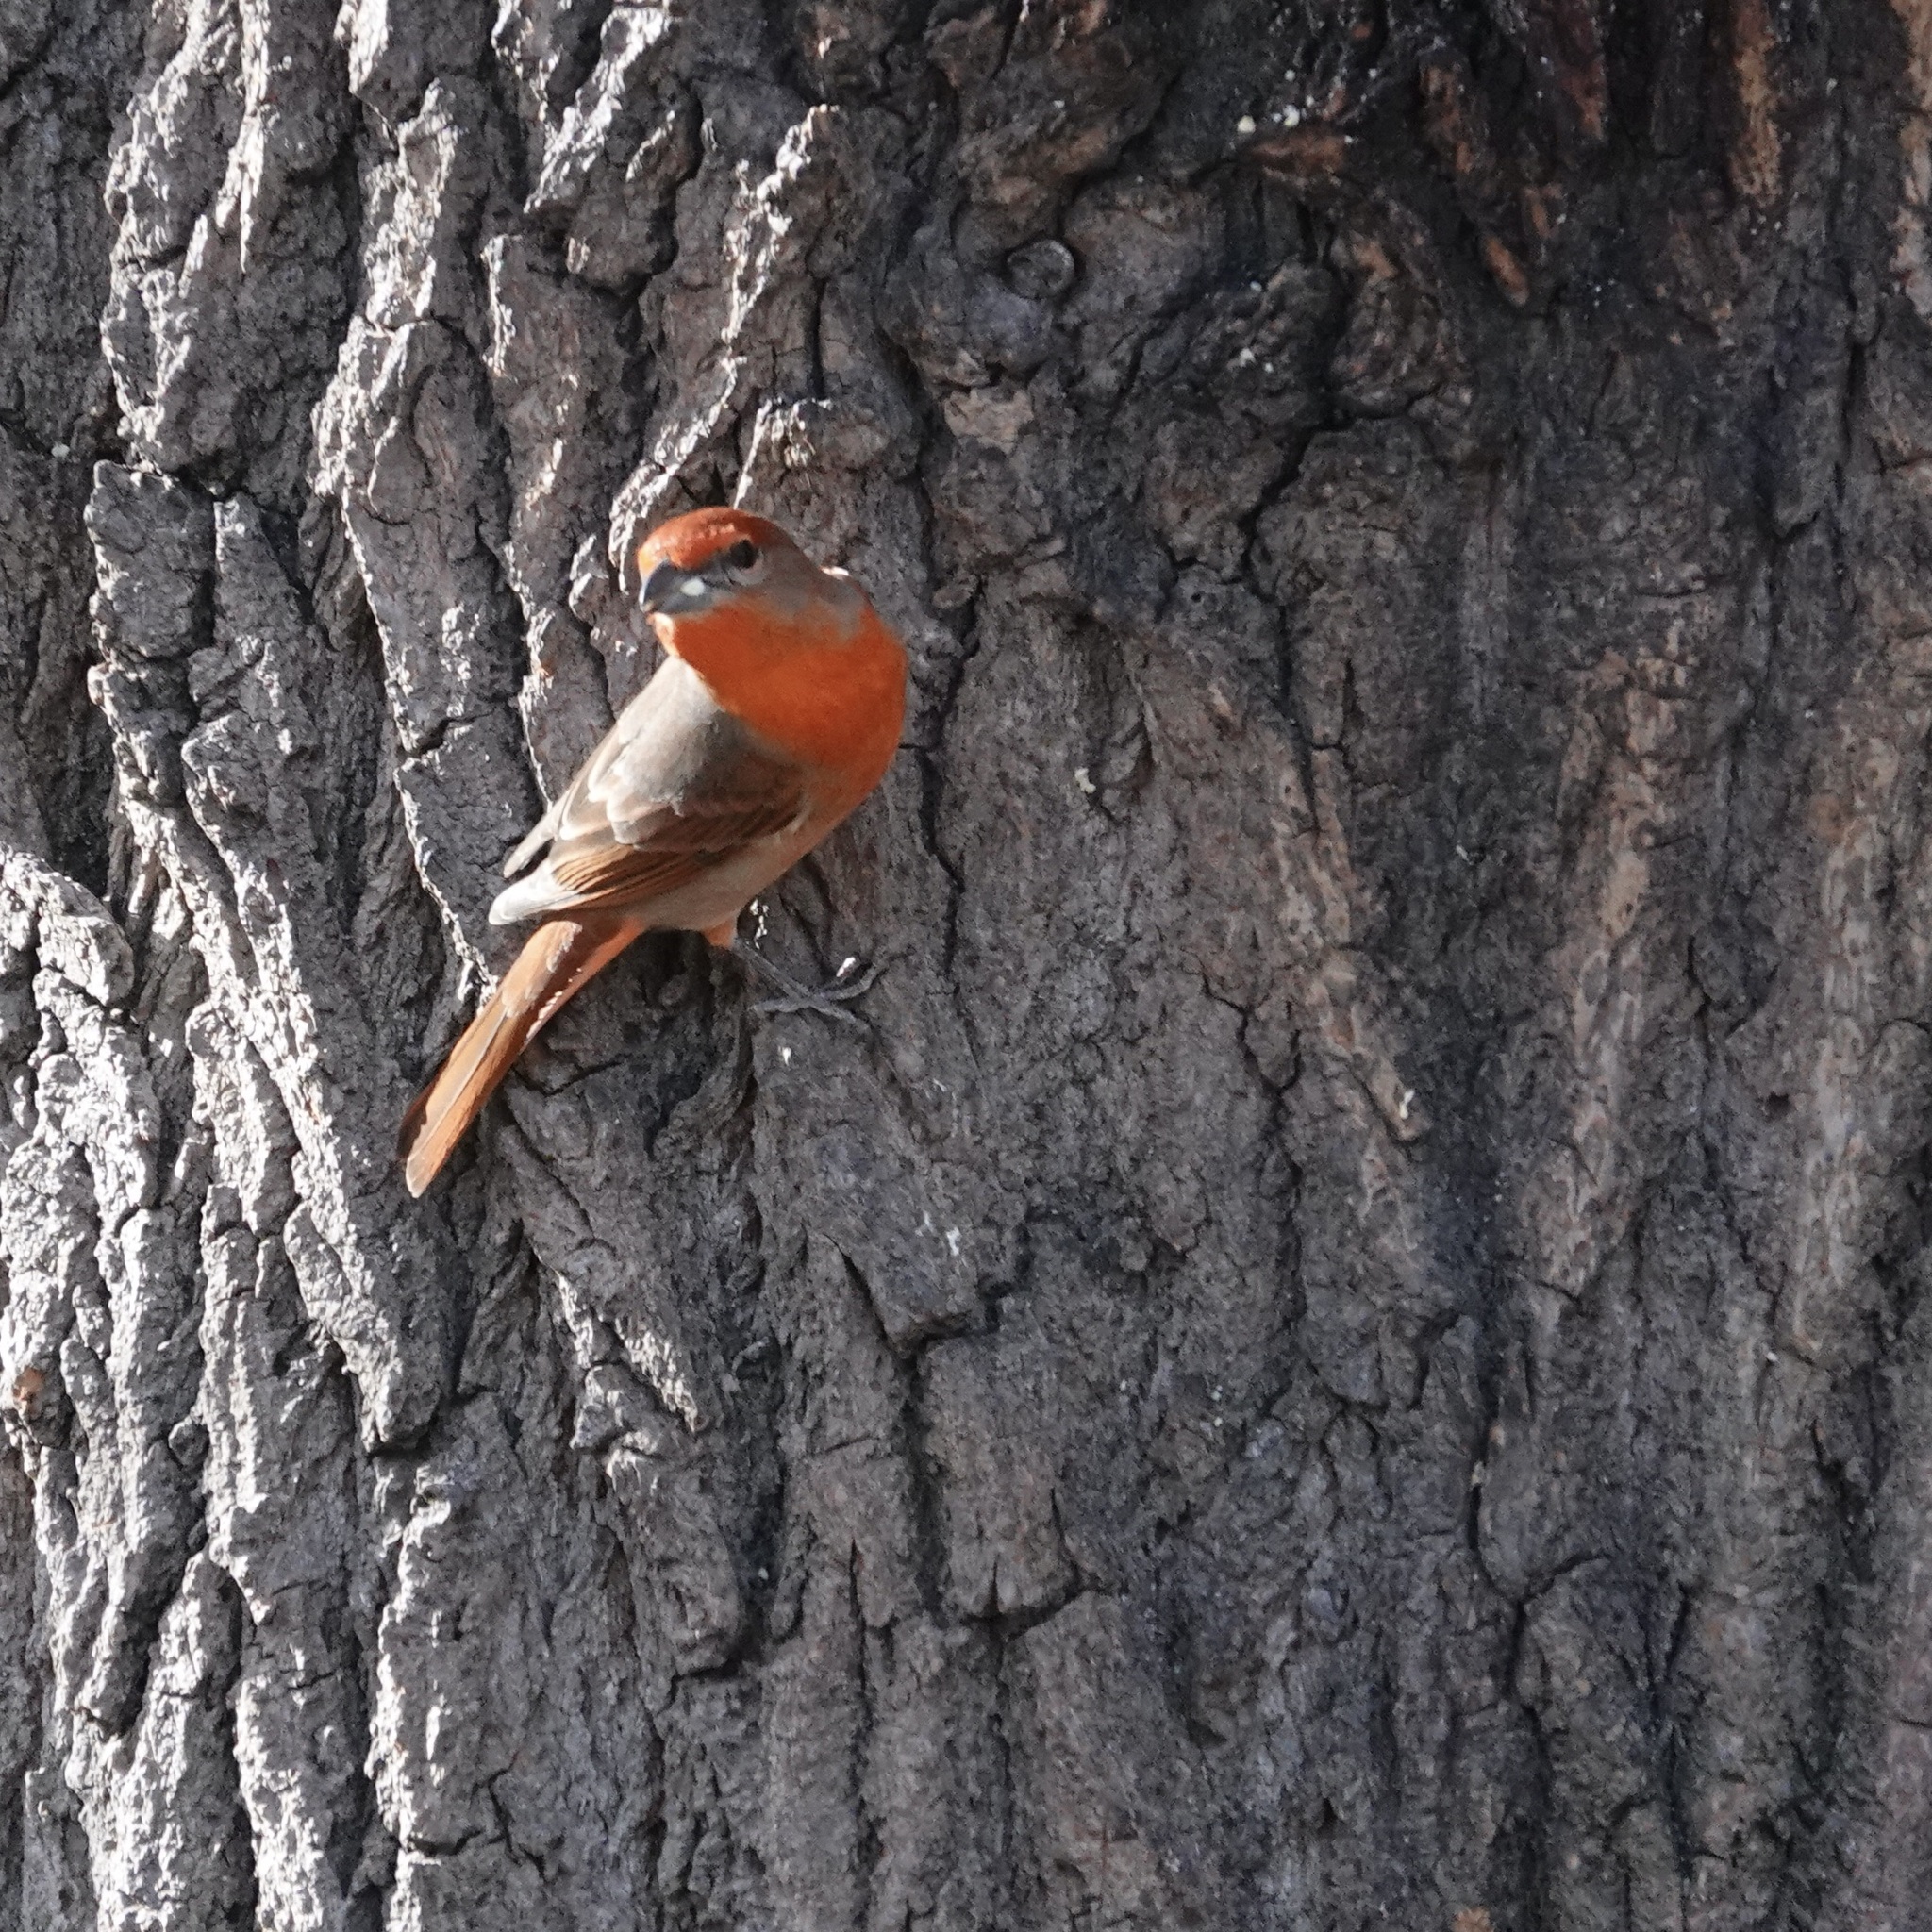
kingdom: Animalia
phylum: Chordata
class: Aves
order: Passeriformes
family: Cardinalidae
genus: Piranga
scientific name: Piranga flava
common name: Red tanager
